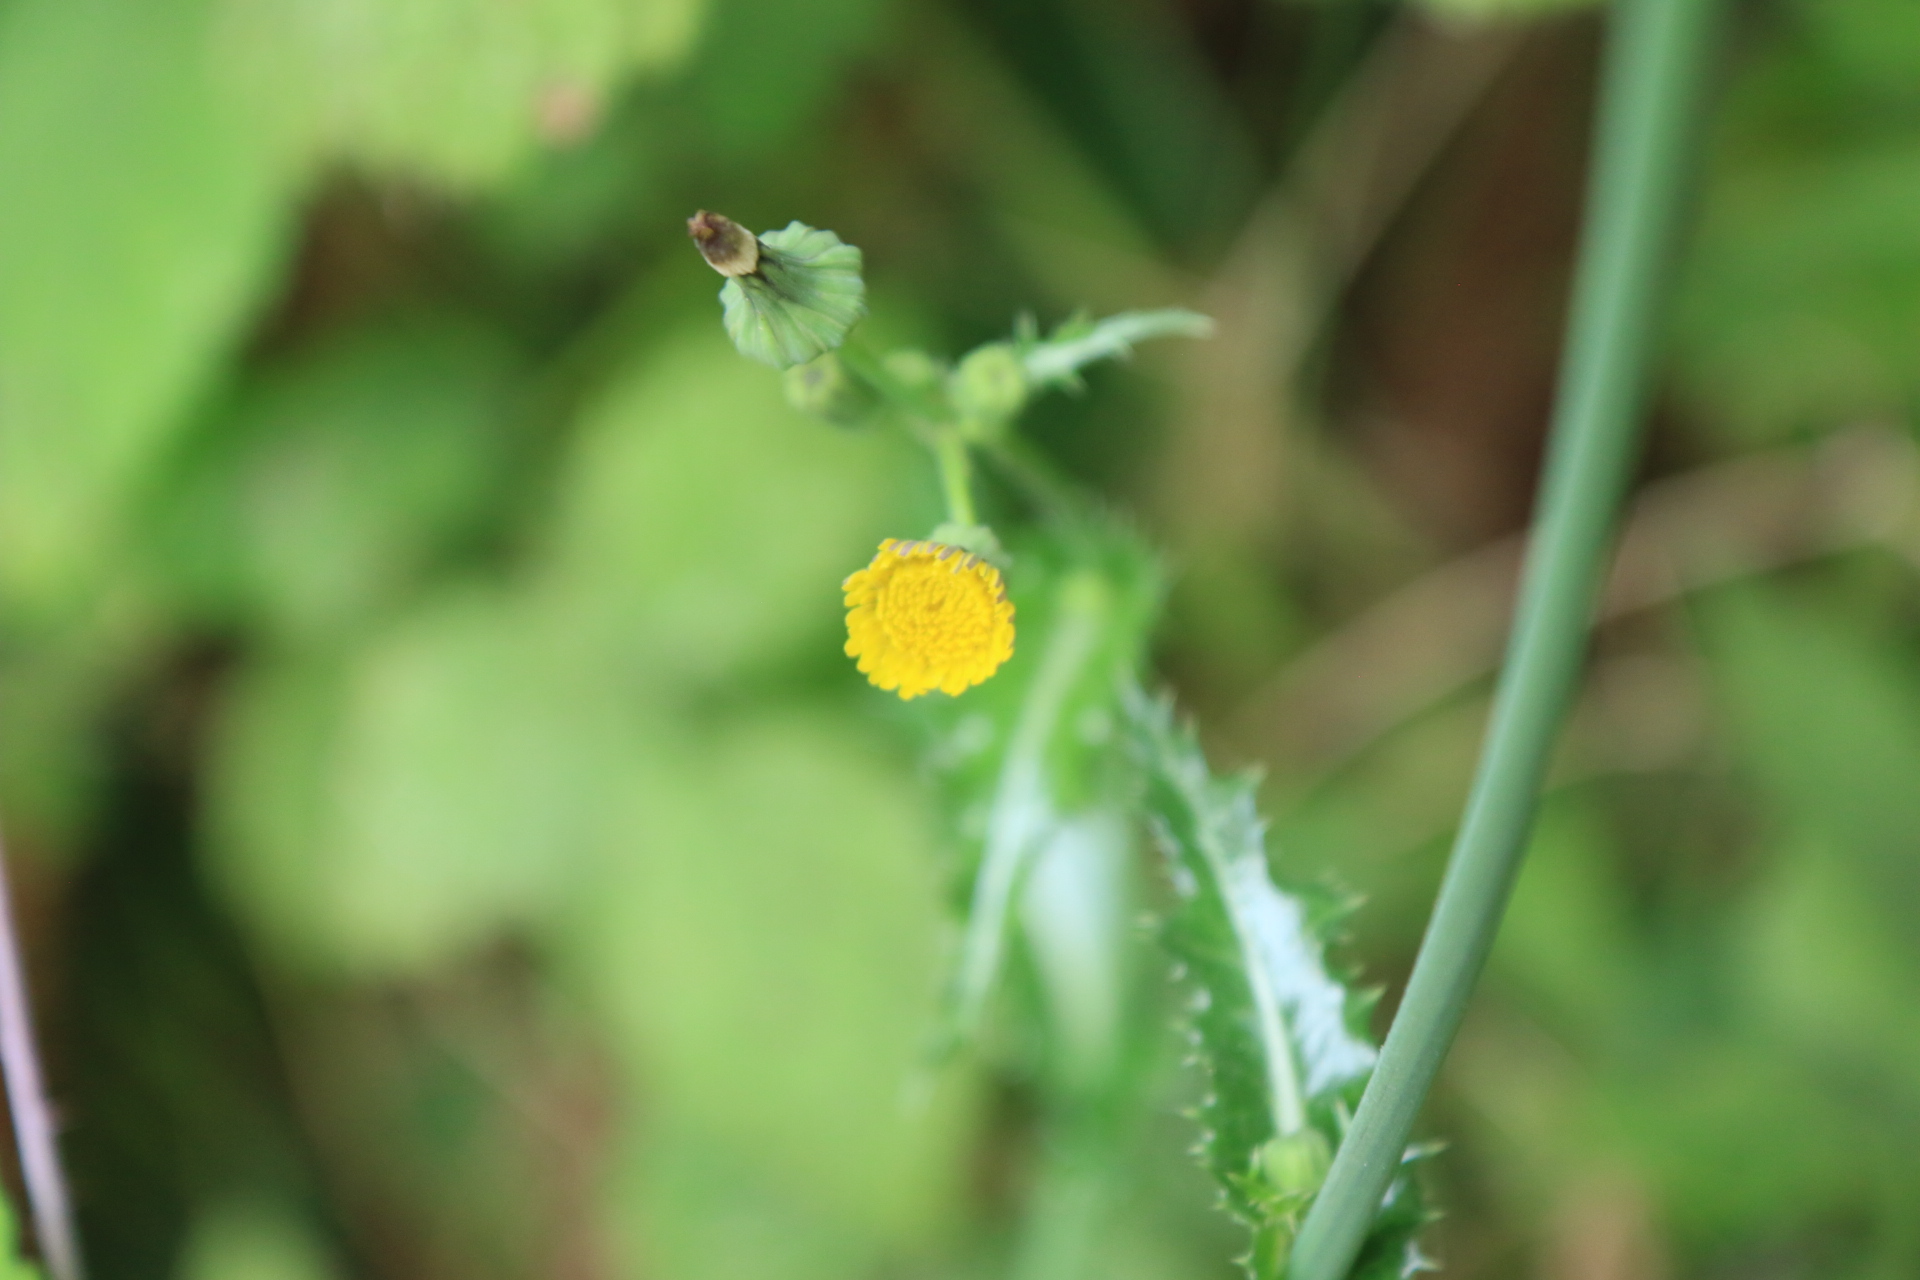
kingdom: Plantae
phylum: Tracheophyta
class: Magnoliopsida
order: Asterales
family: Asteraceae
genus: Sonchus
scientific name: Sonchus asper
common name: Prickly sow-thistle
